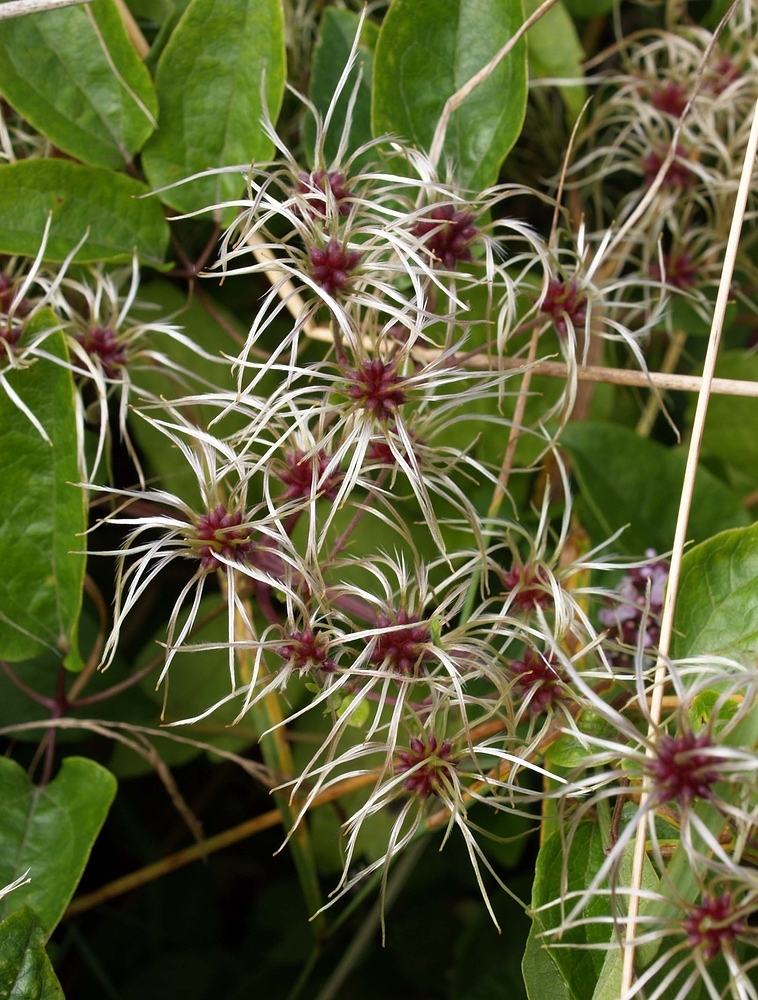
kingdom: Plantae
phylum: Tracheophyta
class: Magnoliopsida
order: Ranunculales
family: Ranunculaceae
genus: Clematis
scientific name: Clematis vitalba
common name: Evergreen clematis
